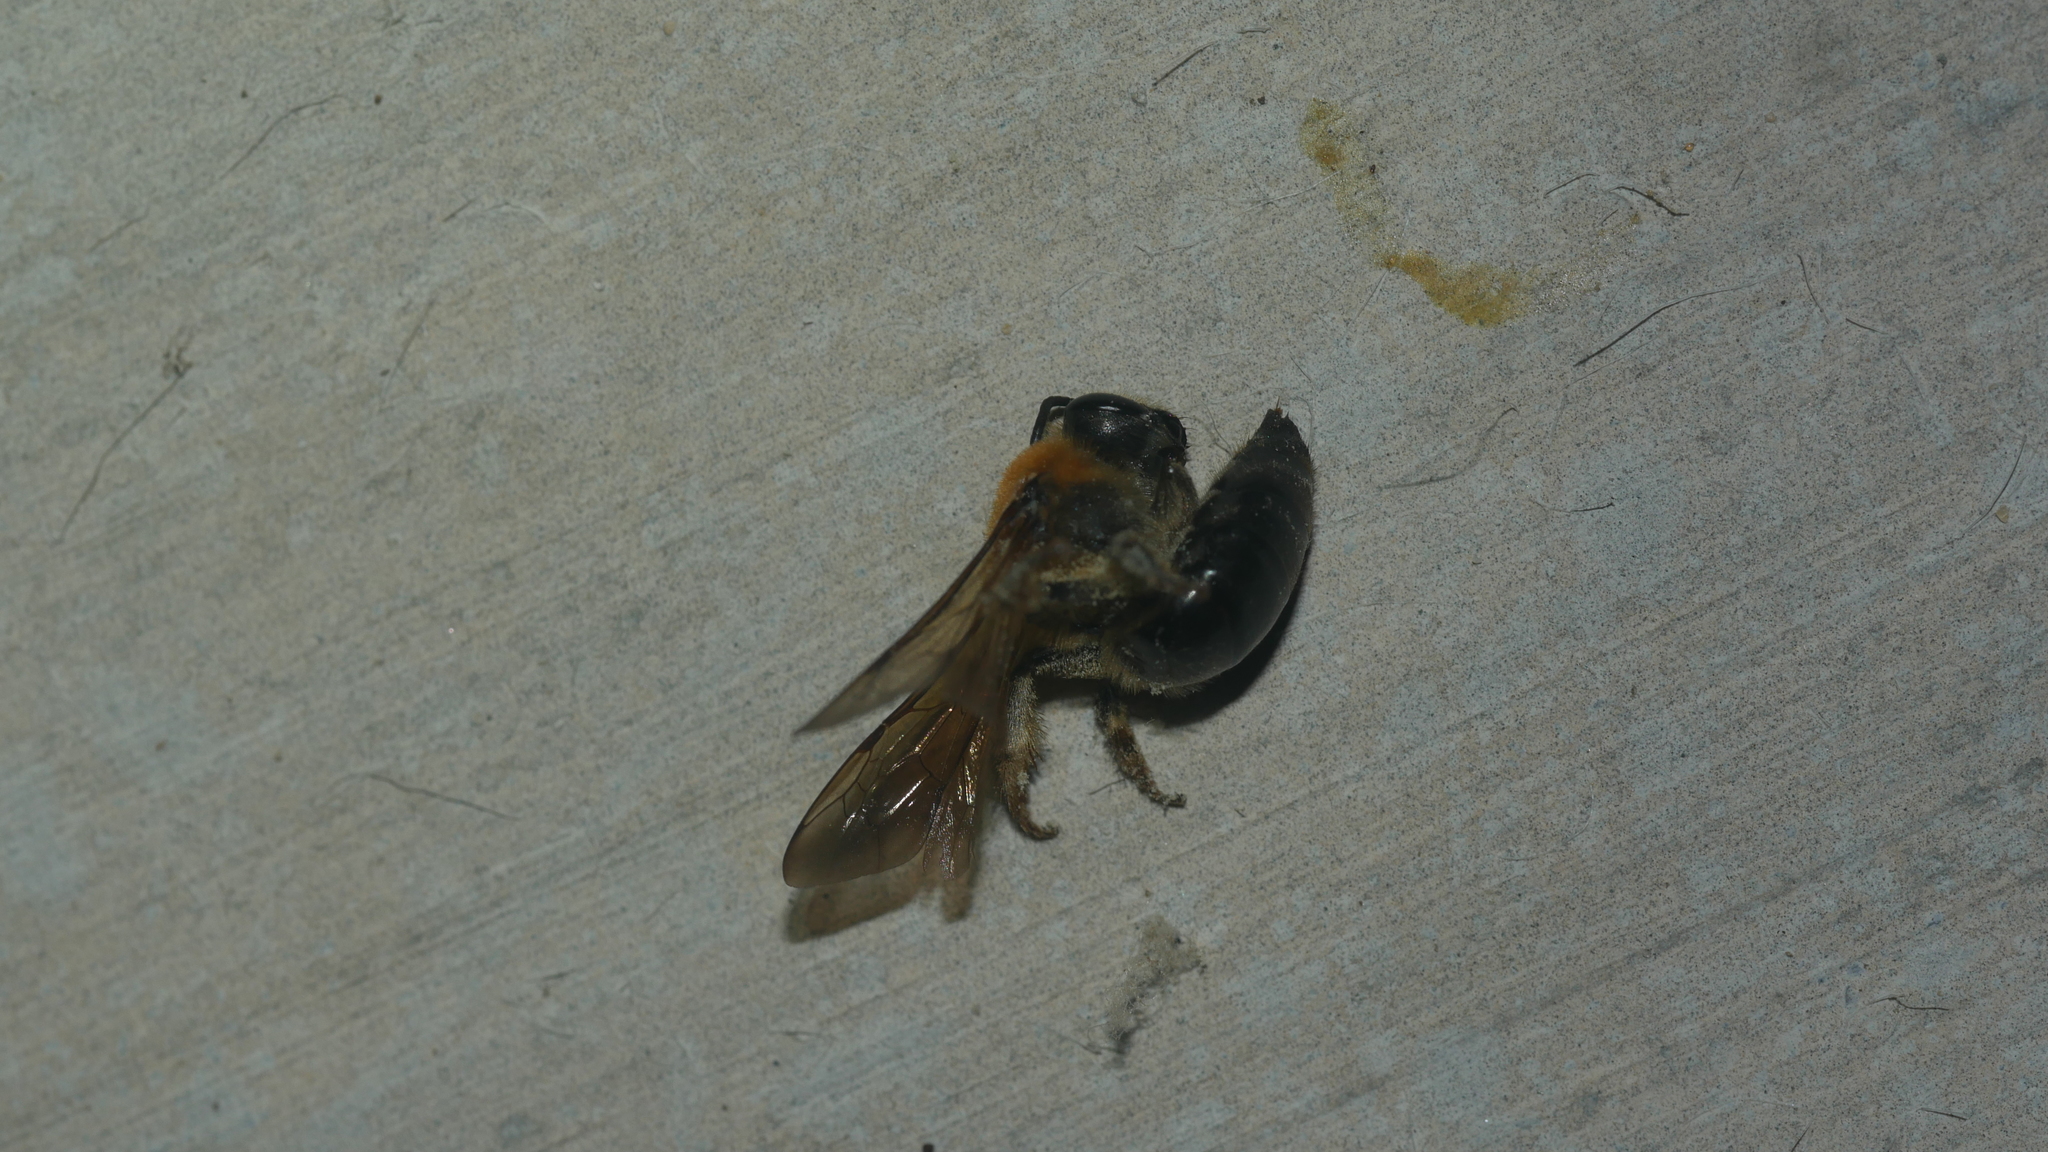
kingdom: Animalia
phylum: Arthropoda
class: Insecta
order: Hymenoptera
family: Colletidae
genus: Colletes
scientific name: Colletes thoracicus
